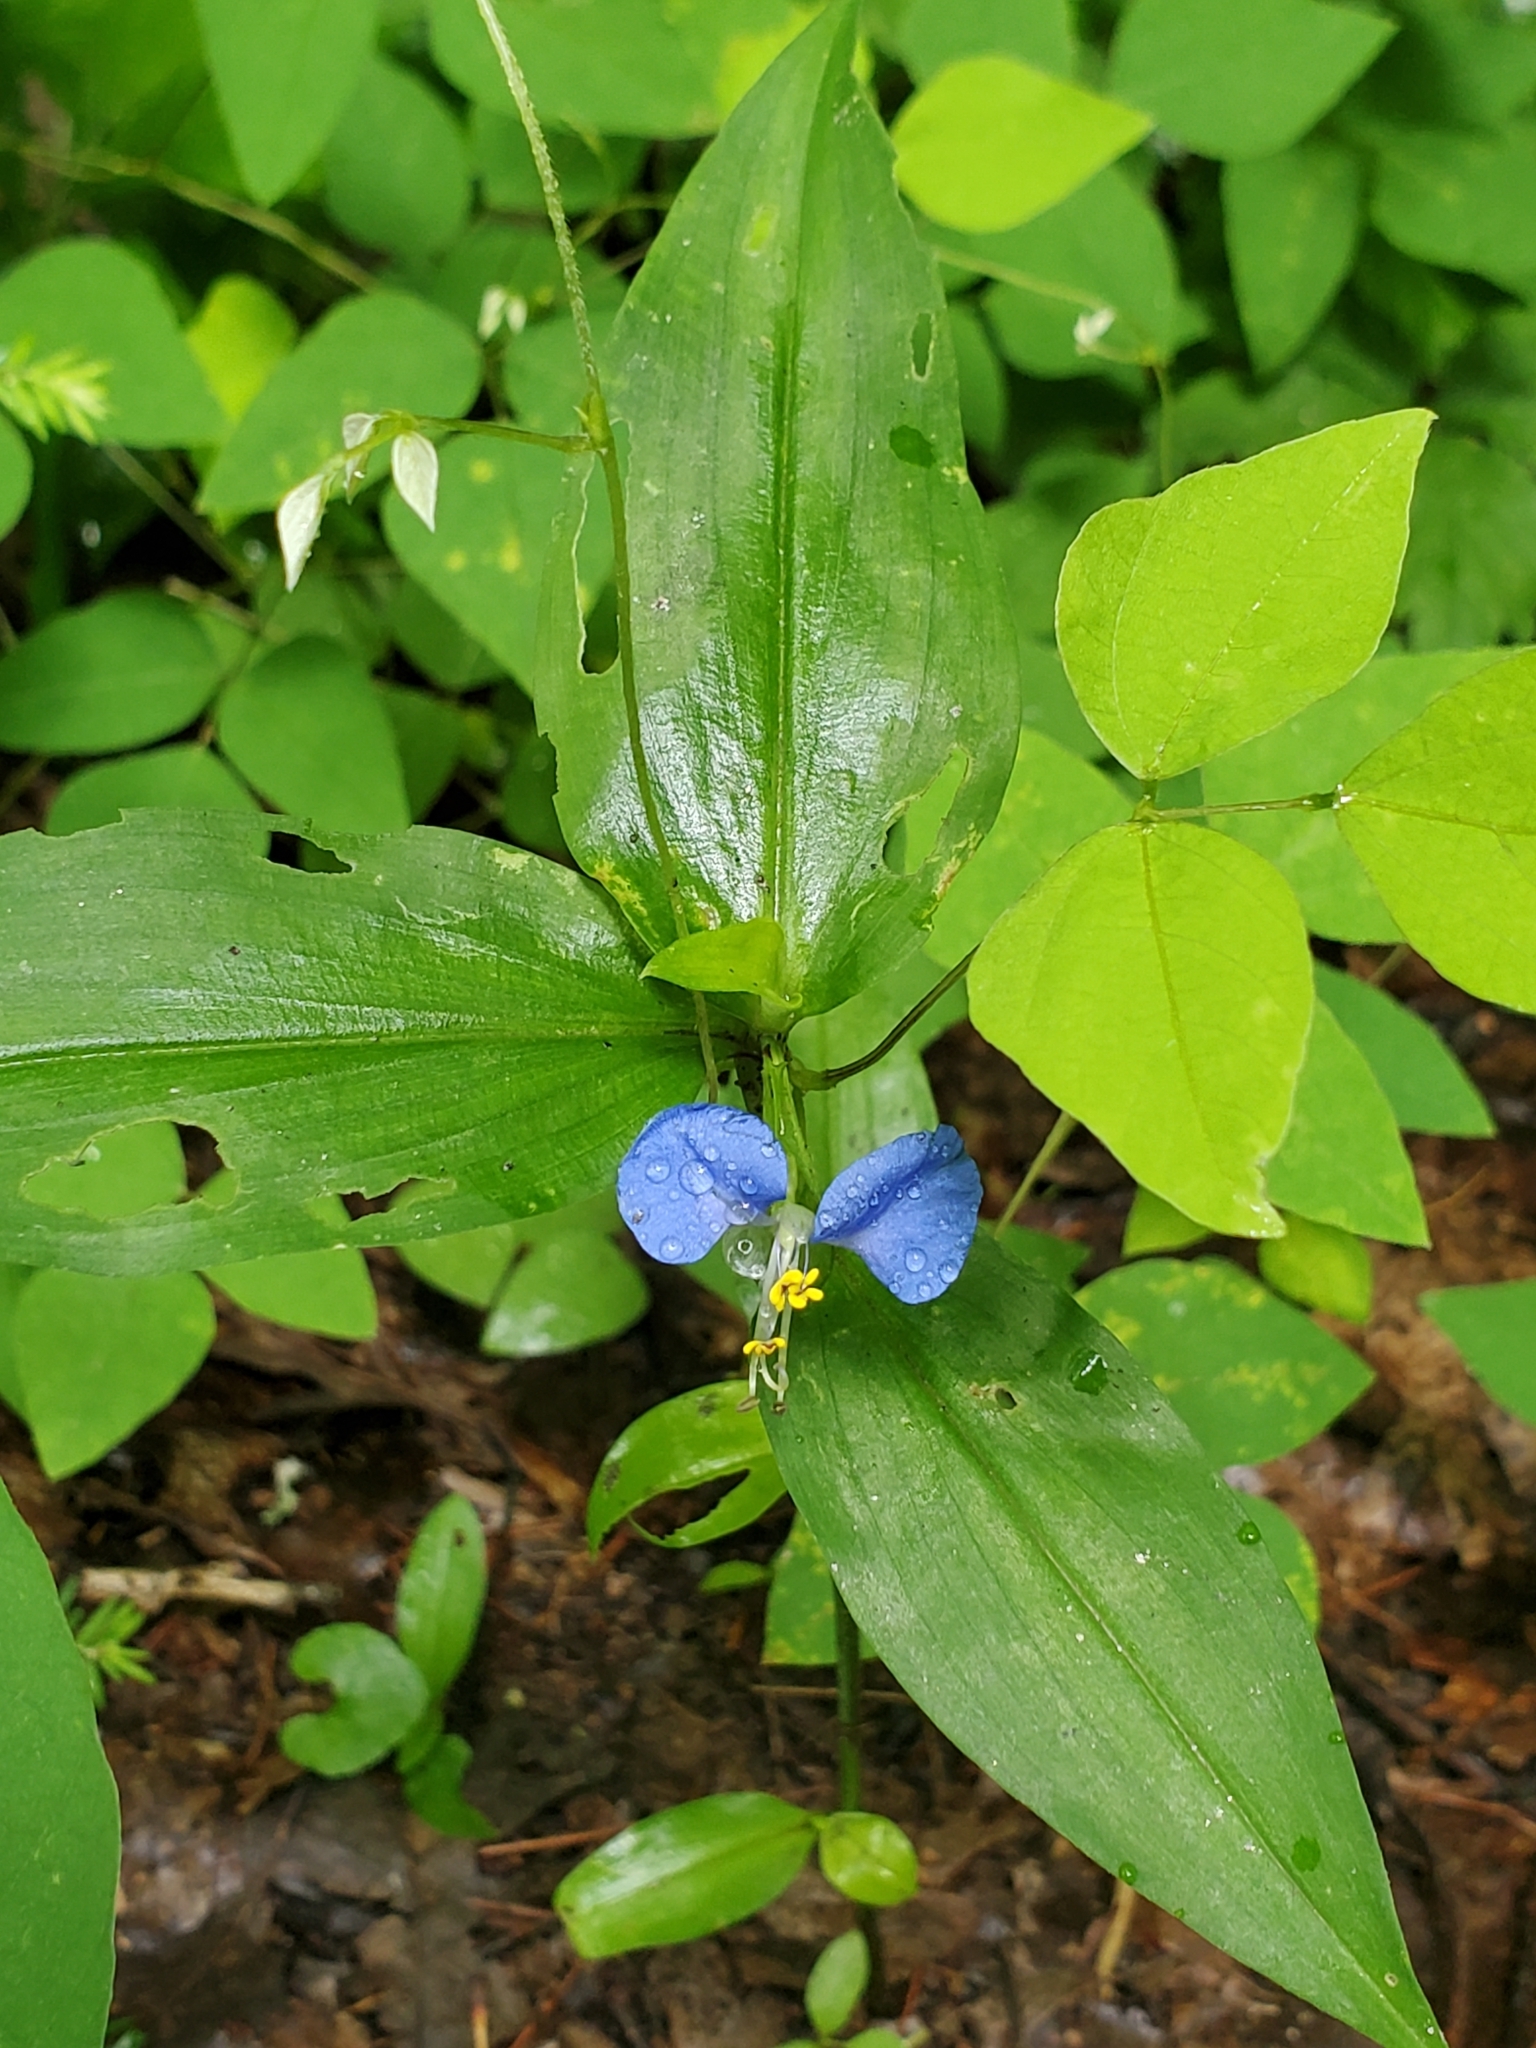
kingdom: Plantae
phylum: Tracheophyta
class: Liliopsida
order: Commelinales
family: Commelinaceae
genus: Commelina
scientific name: Commelina communis
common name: Asiatic dayflower
